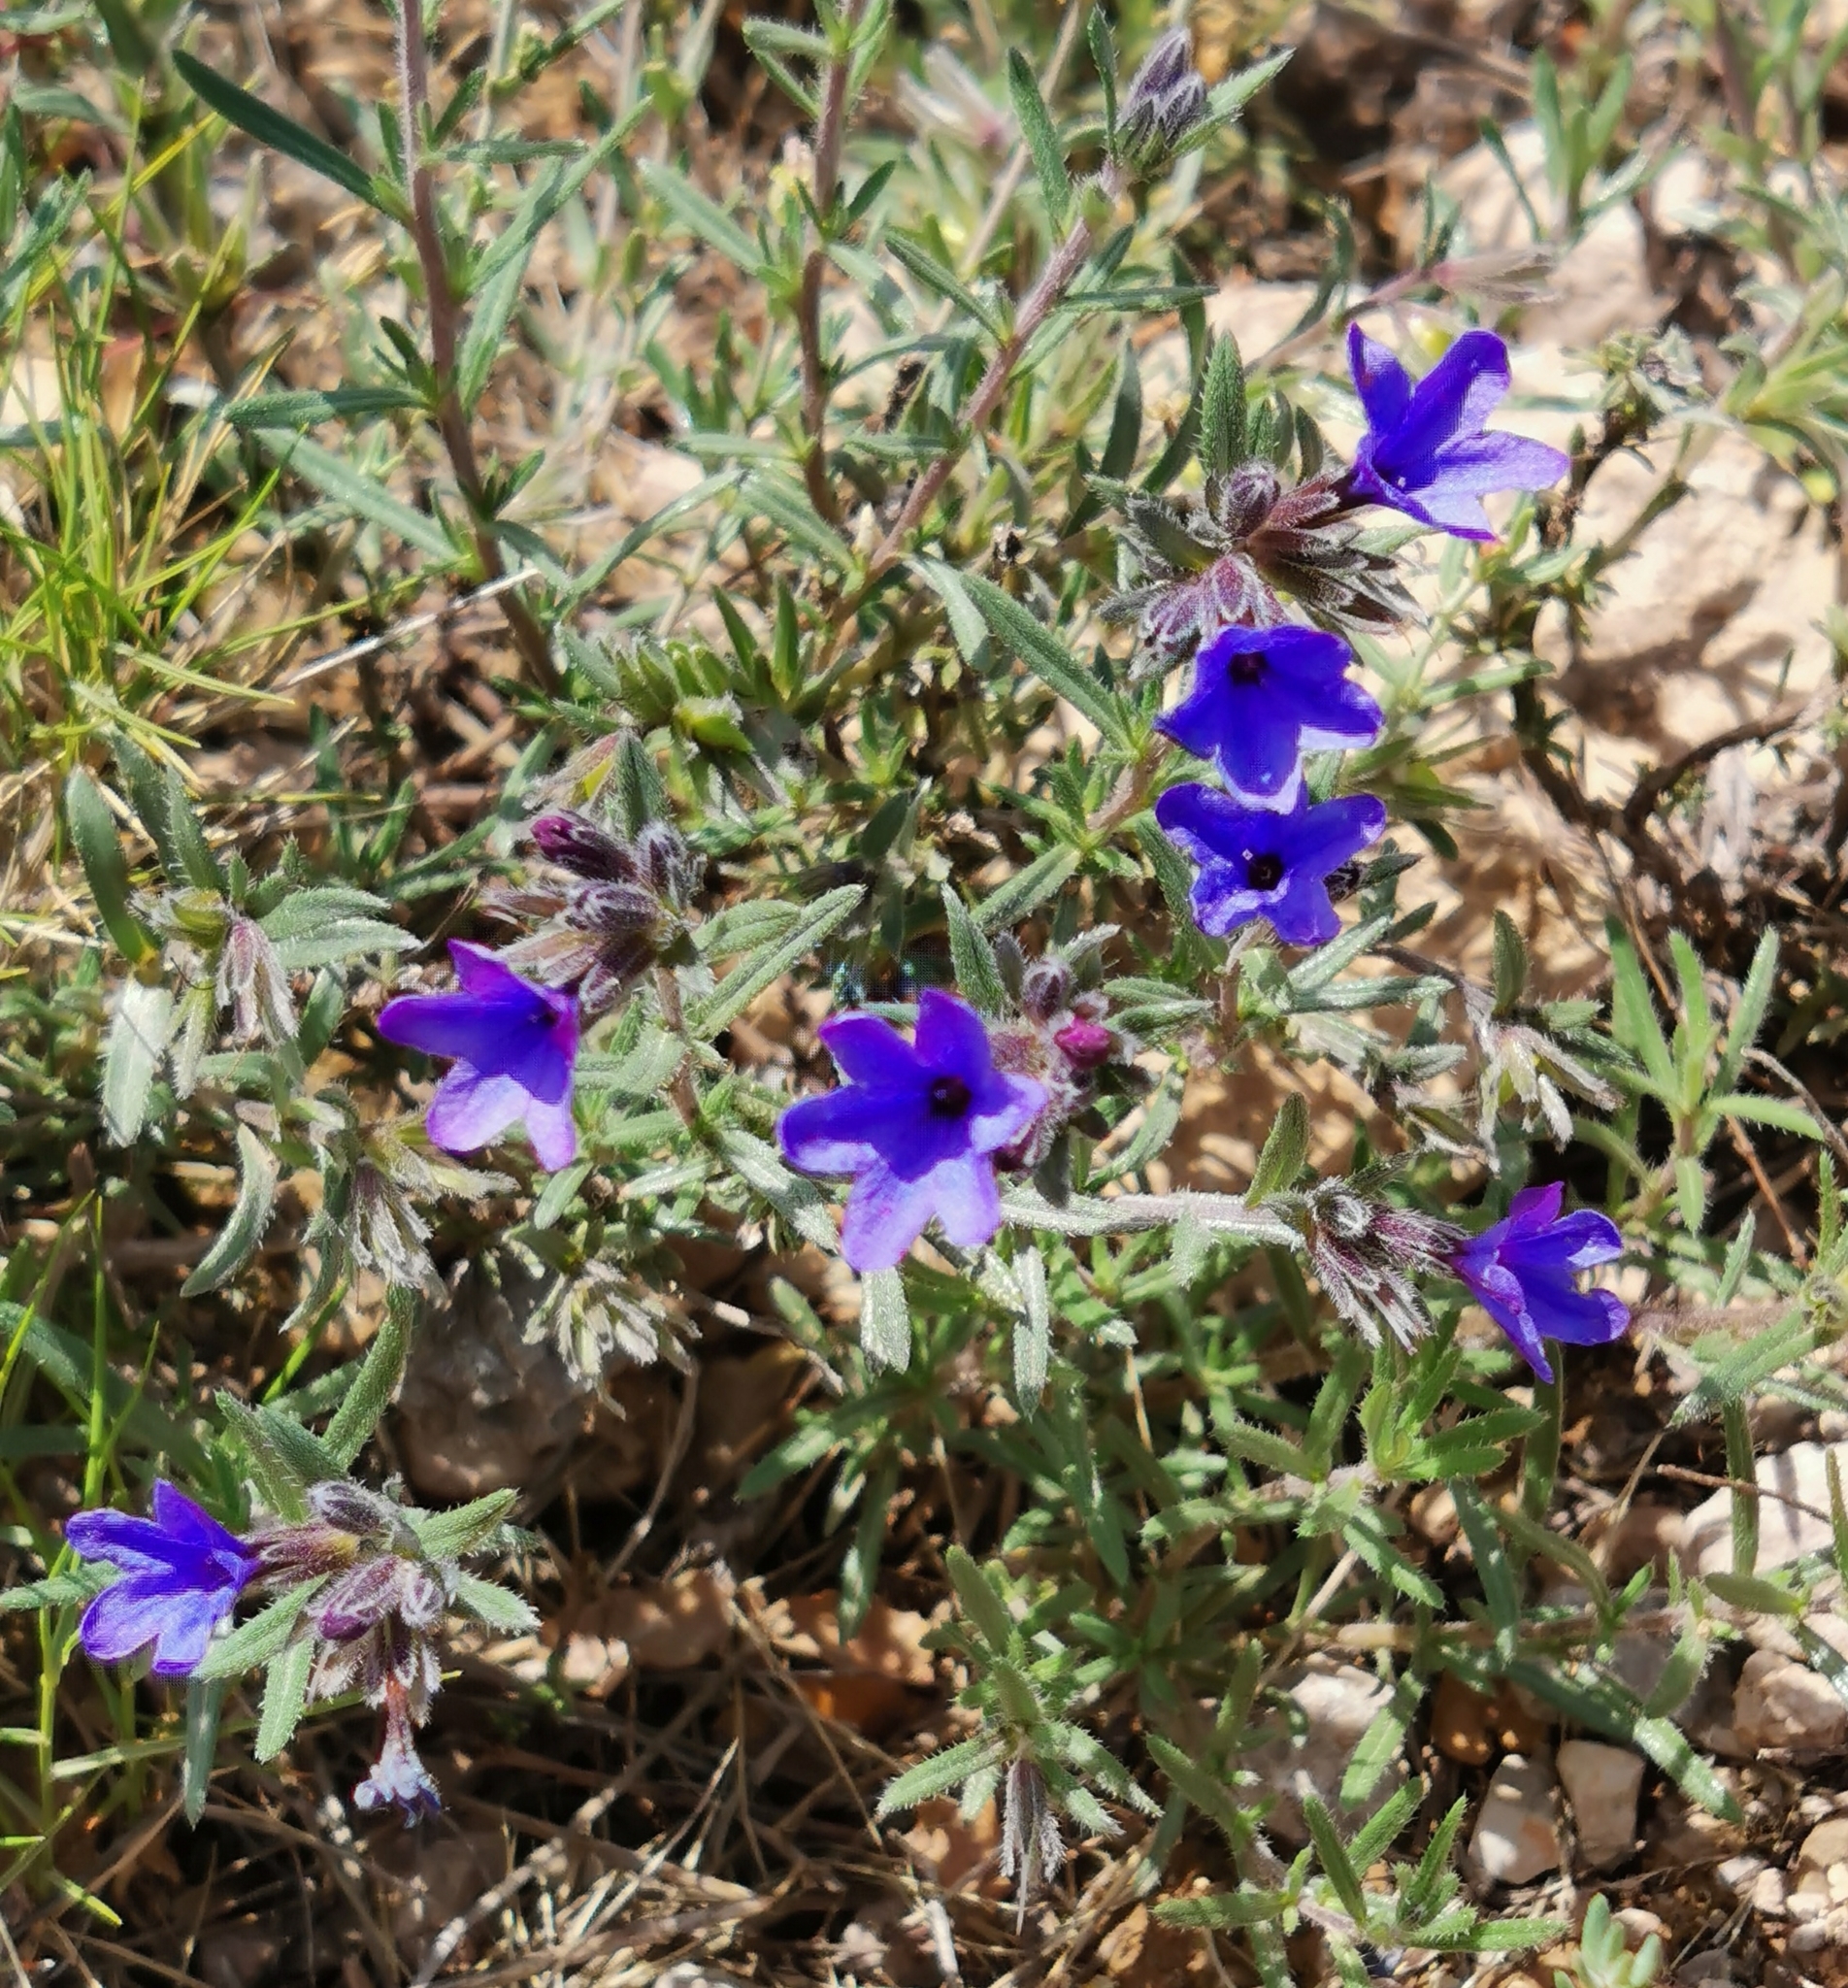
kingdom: Plantae
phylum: Tracheophyta
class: Magnoliopsida
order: Boraginales
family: Boraginaceae
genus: Lithodora
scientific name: Lithodora fruticosa
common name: Shrubby gromwell
